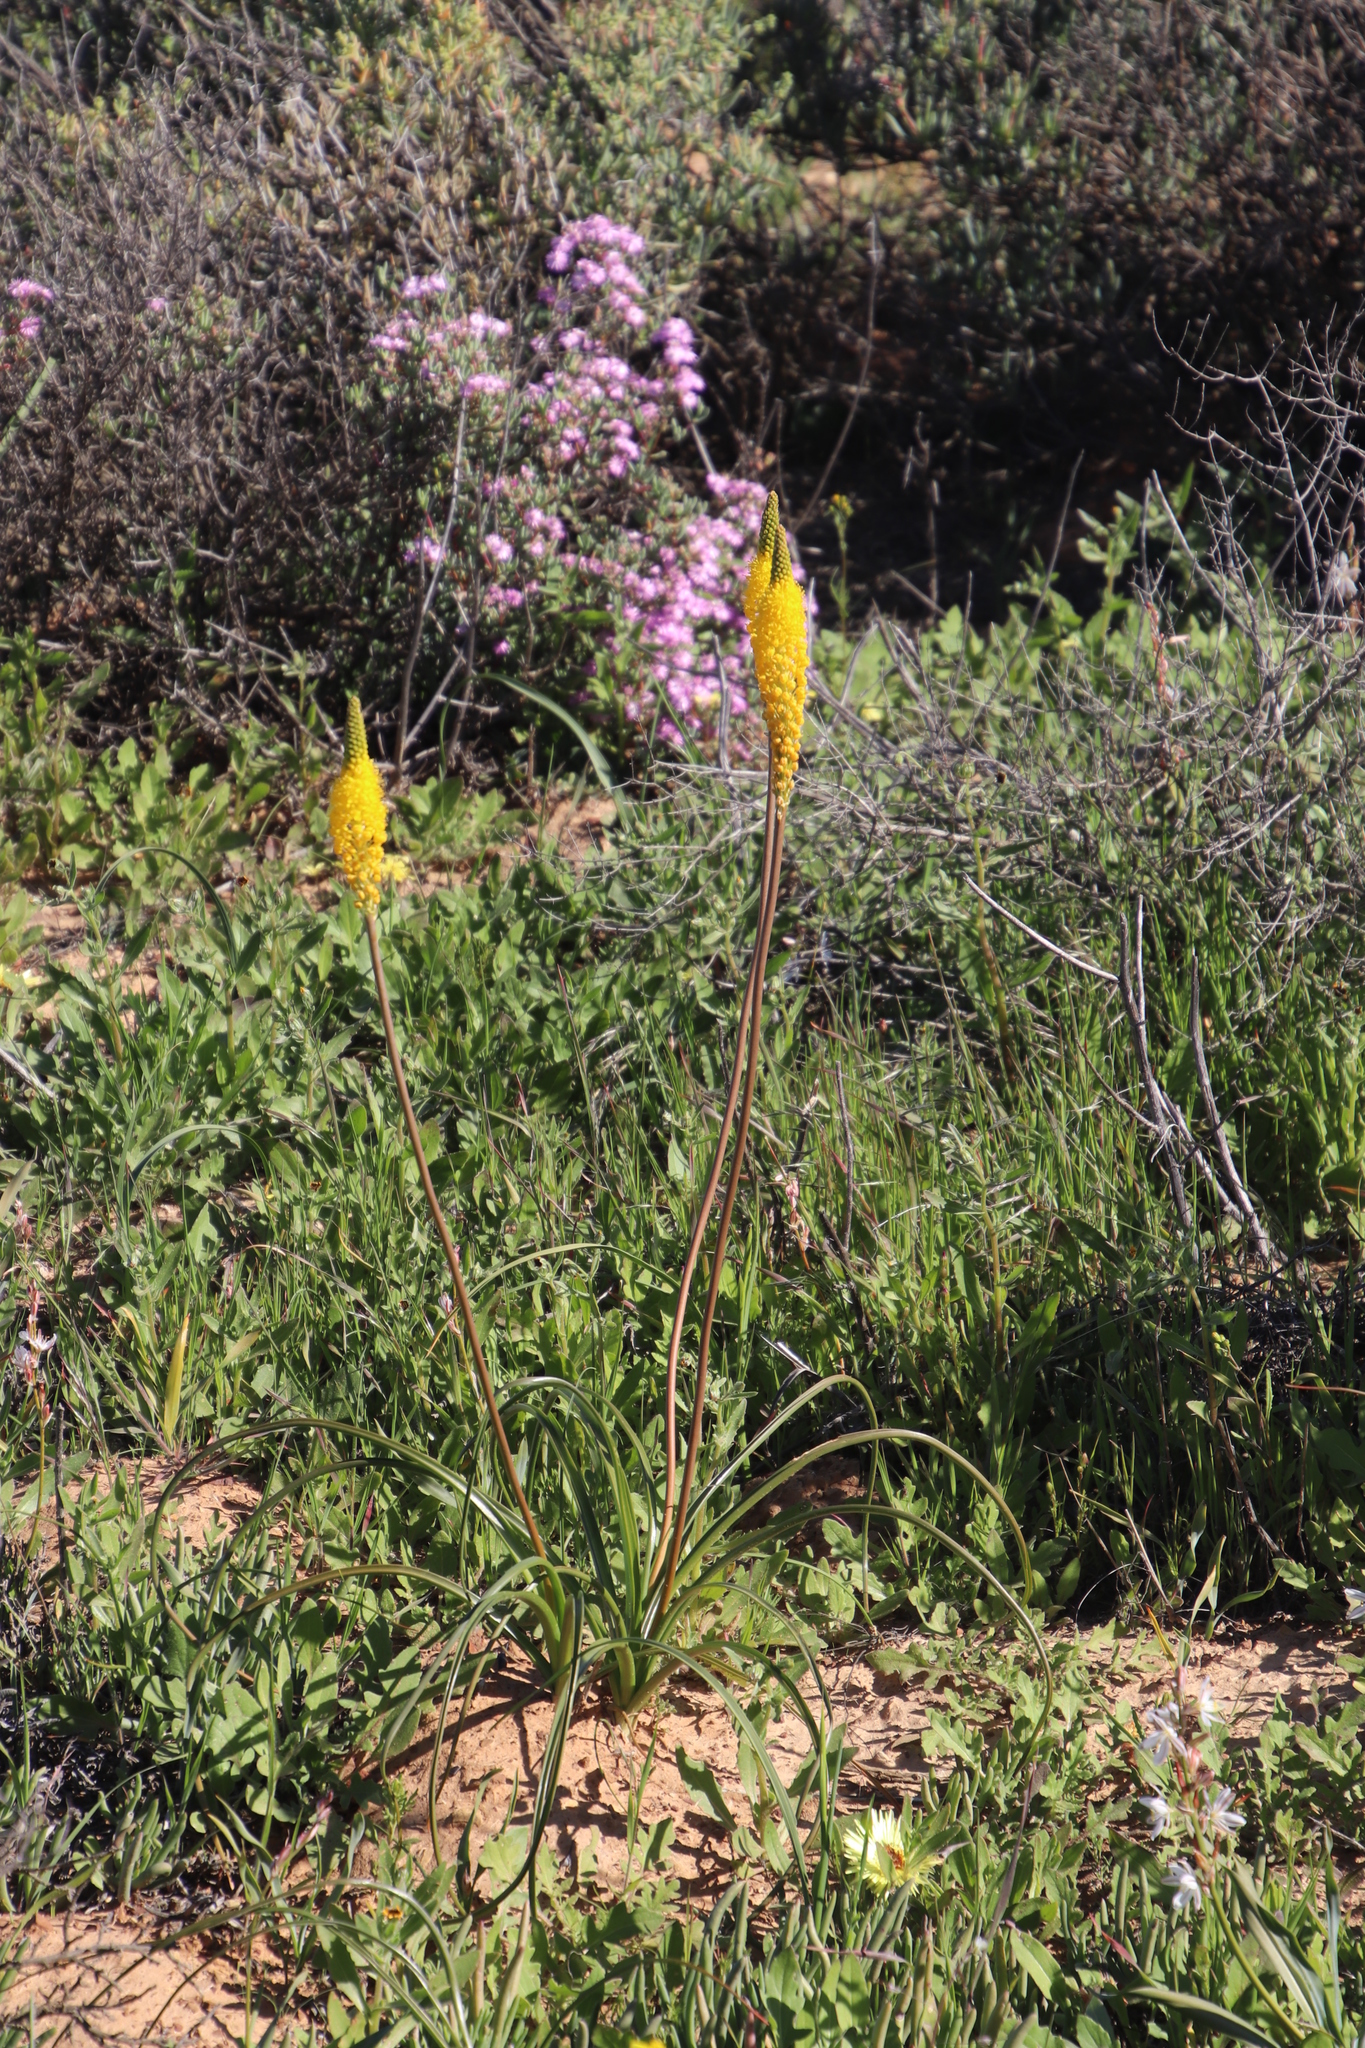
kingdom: Plantae
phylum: Tracheophyta
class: Liliopsida
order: Asparagales
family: Asphodelaceae
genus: Bulbinella
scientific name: Bulbinella nutans
